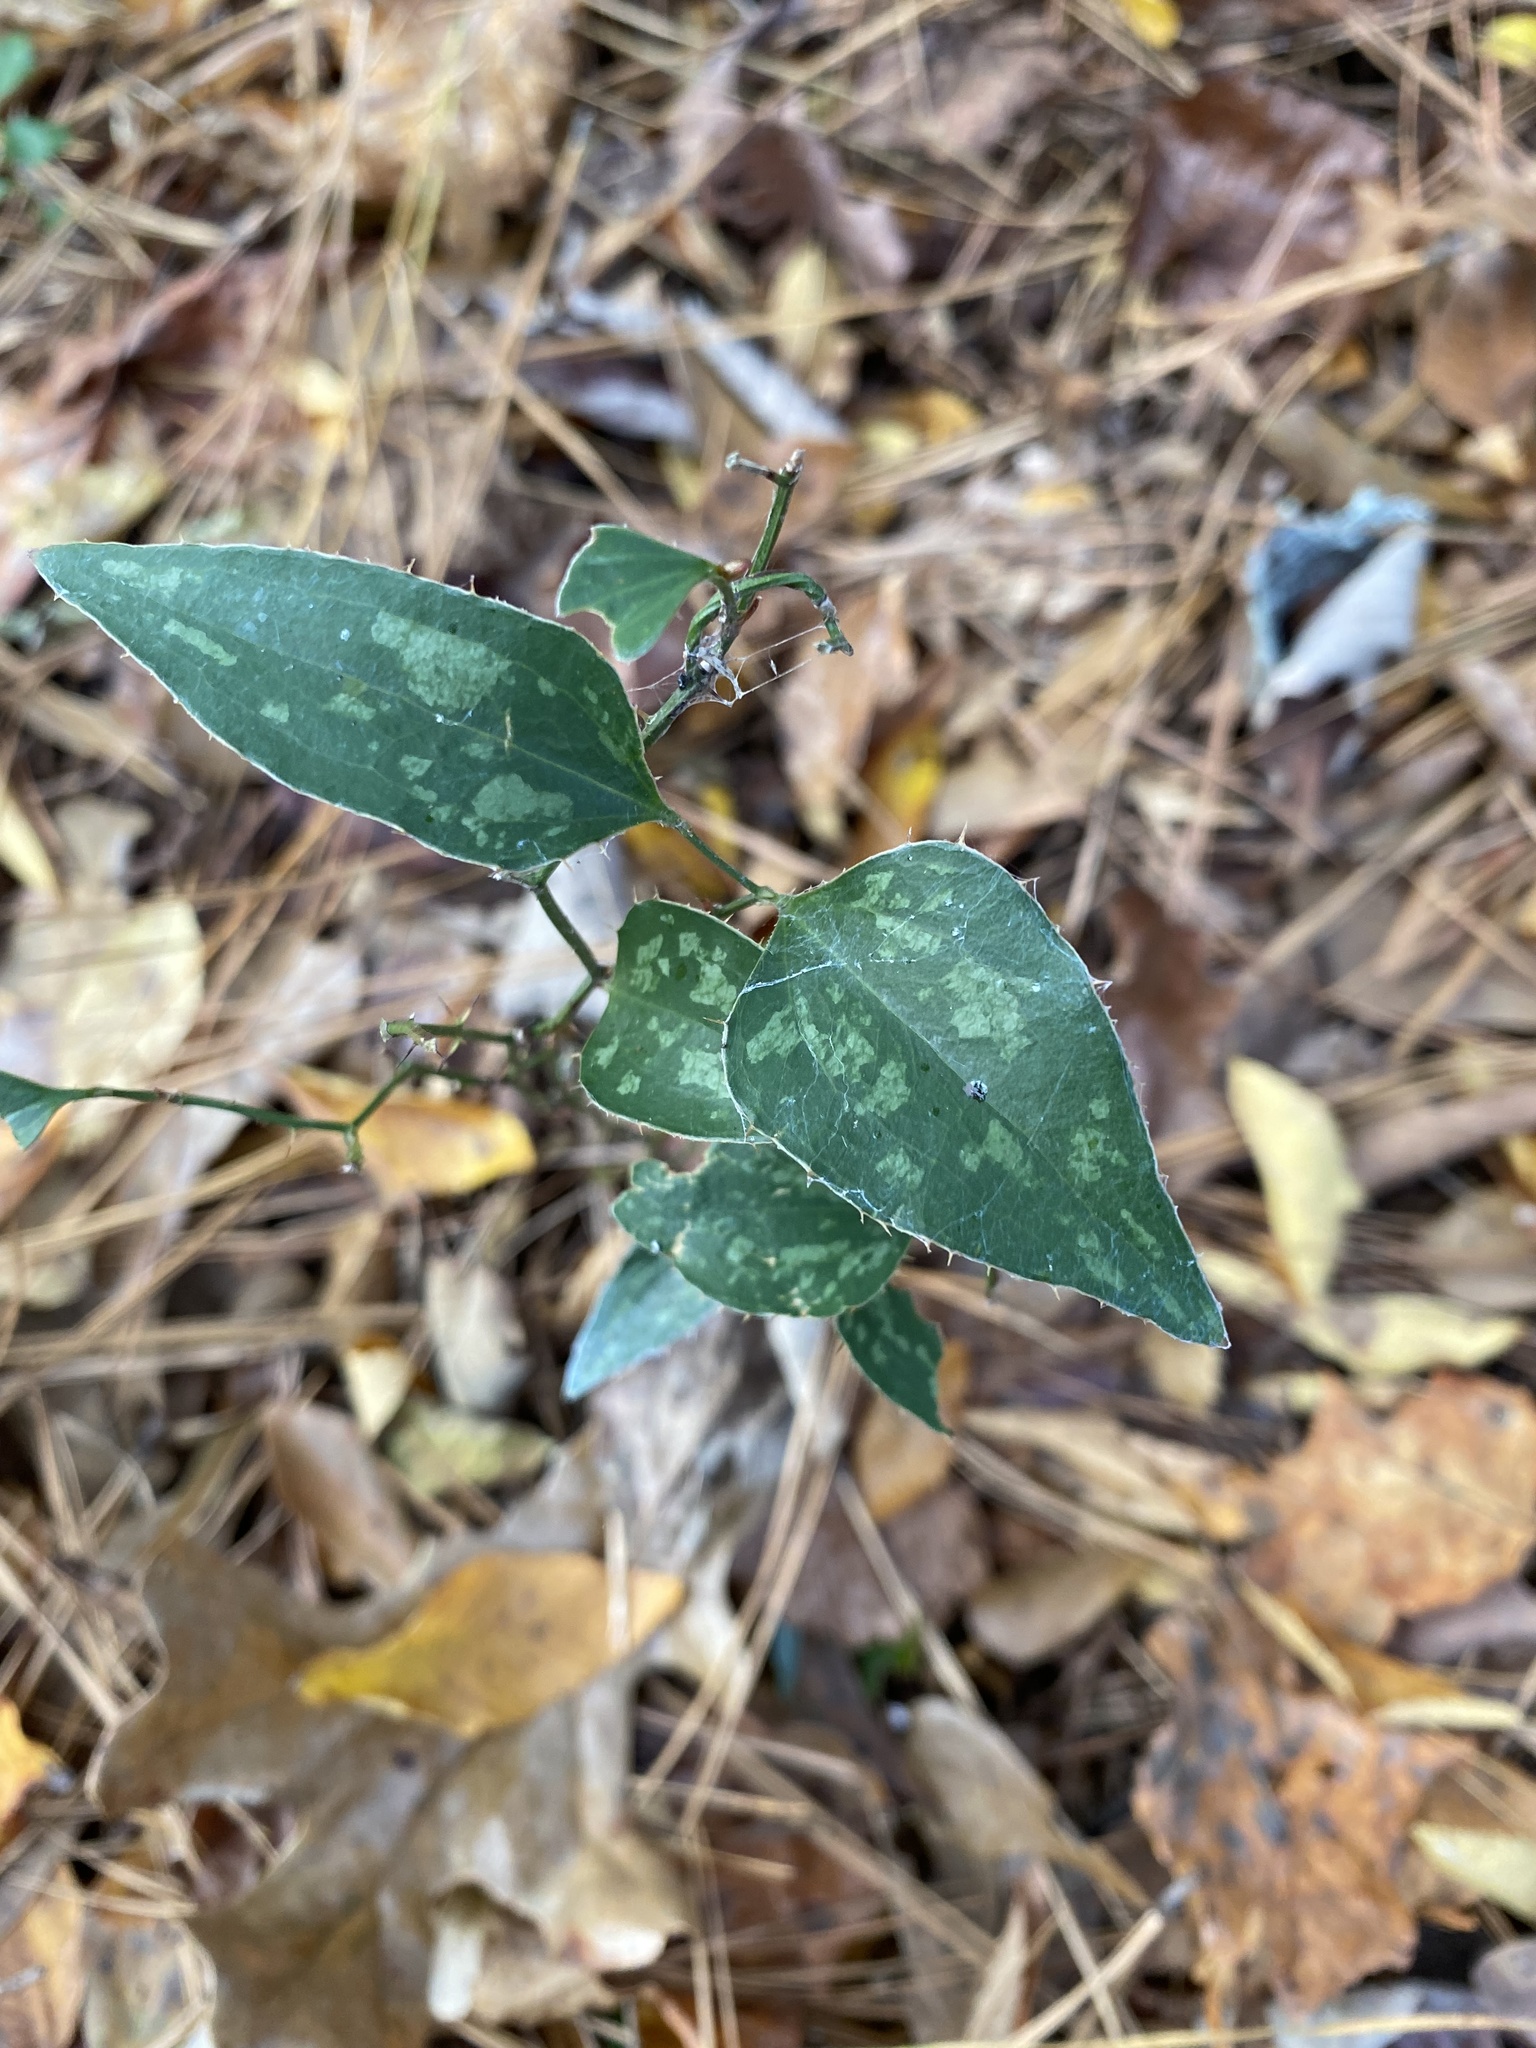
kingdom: Plantae
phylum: Tracheophyta
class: Liliopsida
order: Liliales
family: Smilacaceae
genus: Smilax
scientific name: Smilax bona-nox
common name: Catbrier
